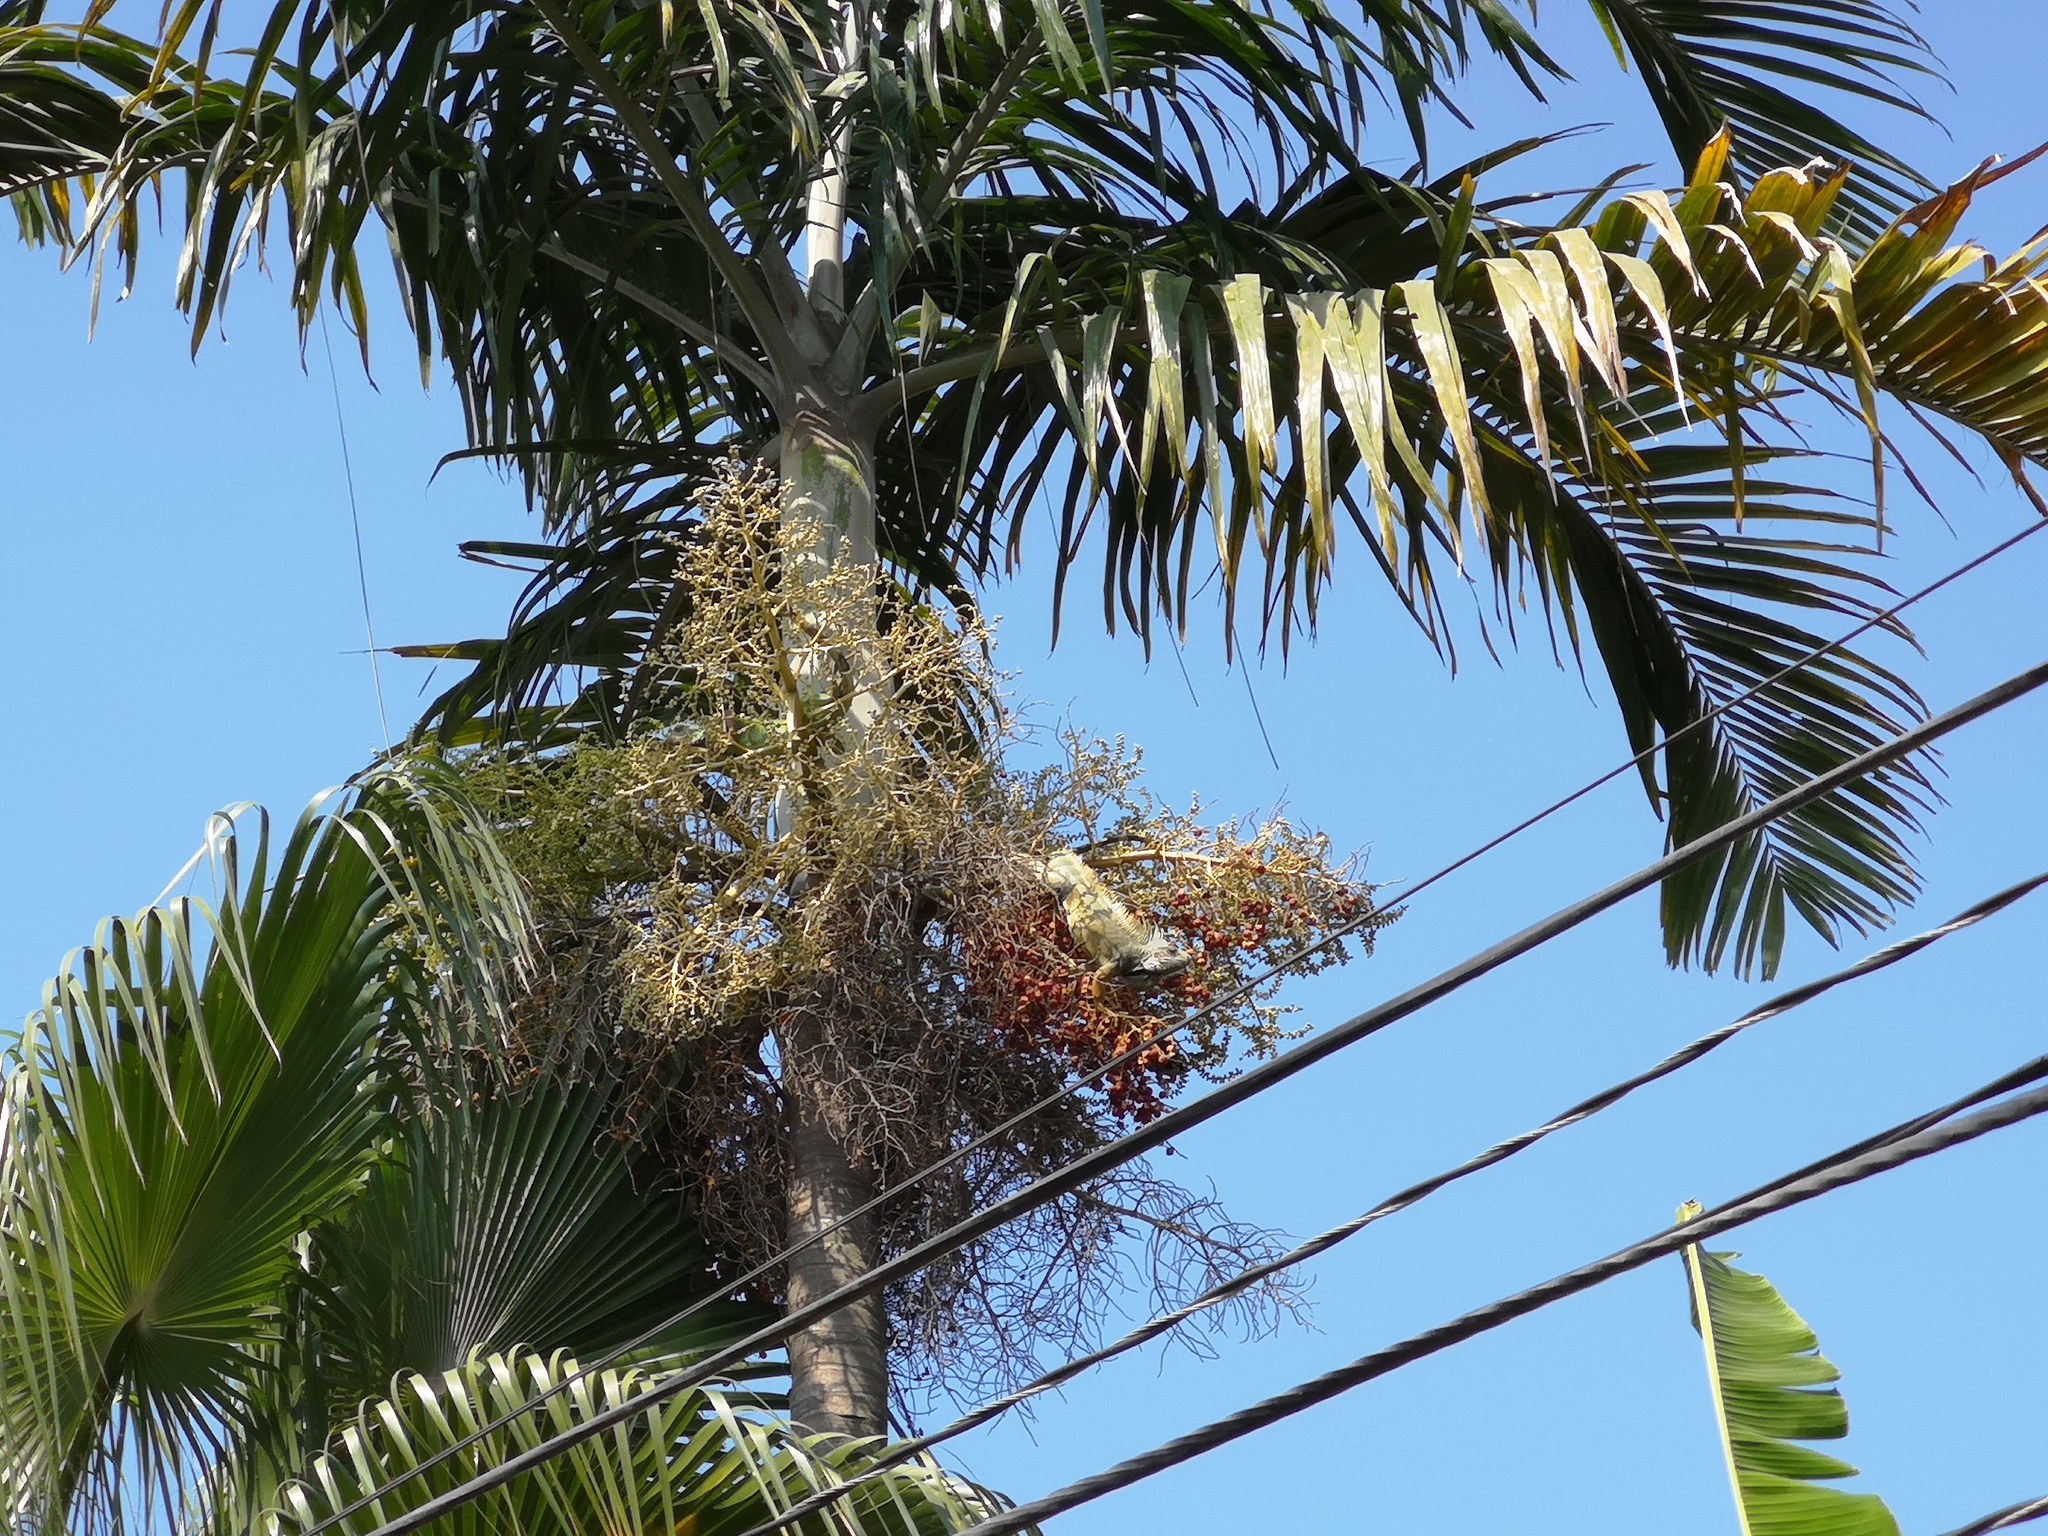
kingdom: Animalia
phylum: Chordata
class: Squamata
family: Iguanidae
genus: Iguana
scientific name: Iguana iguana
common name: Green iguana
